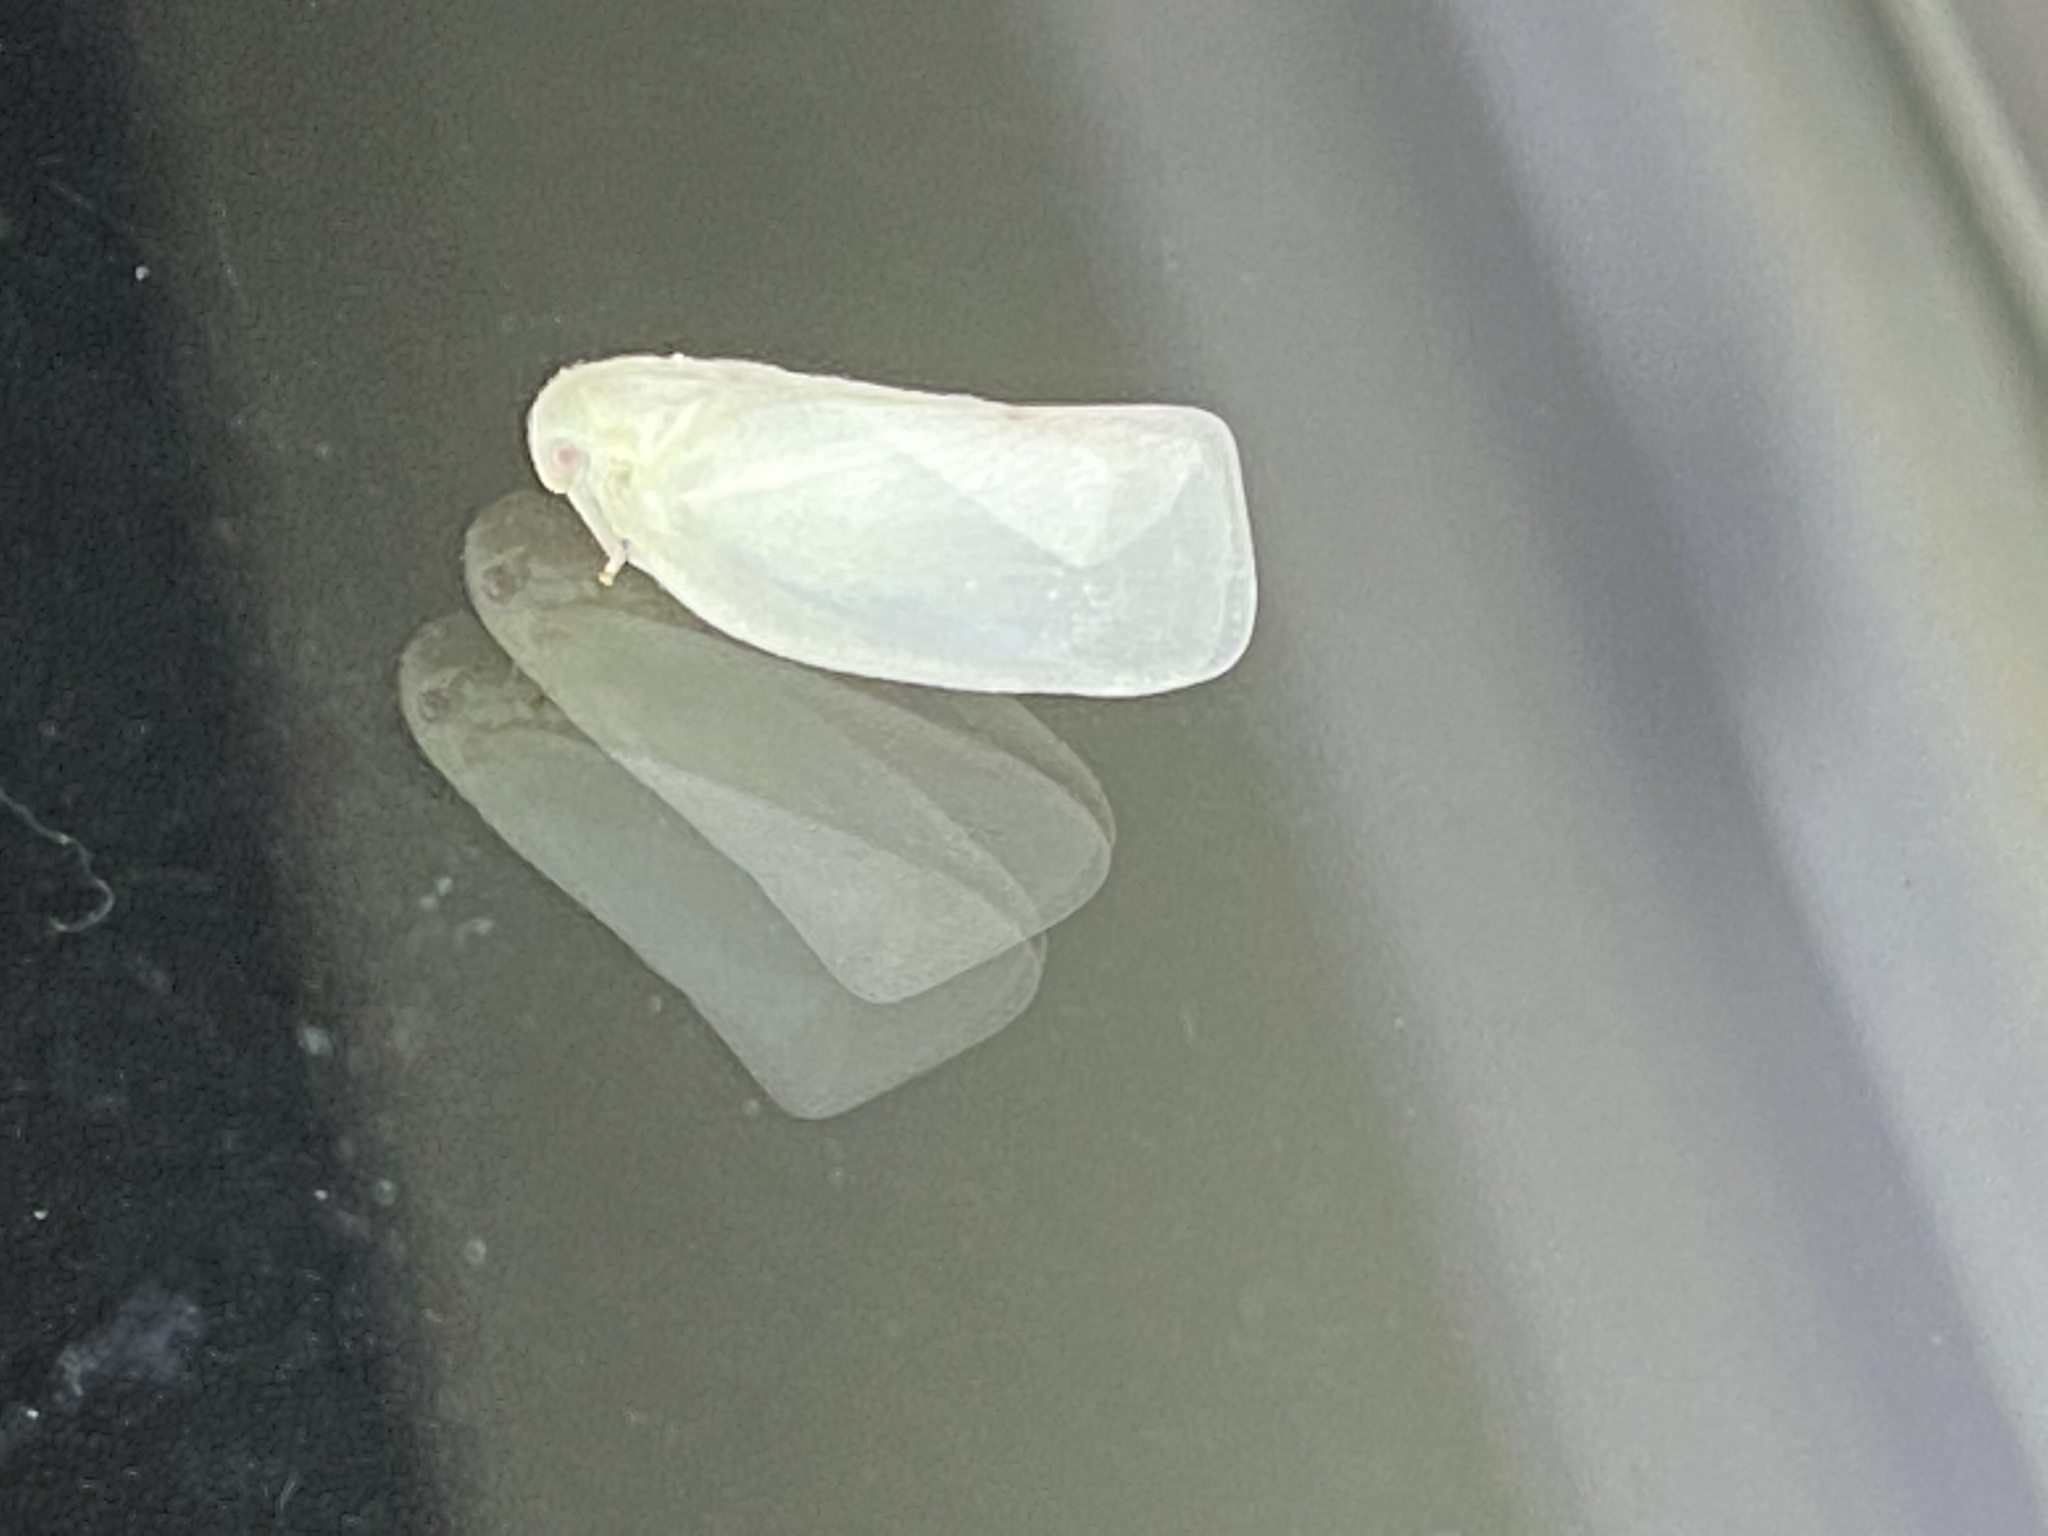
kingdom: Animalia
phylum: Arthropoda
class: Insecta
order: Hemiptera
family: Flatidae
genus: Flatormenis
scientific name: Flatormenis proxima
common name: Northern flatid planthopper
